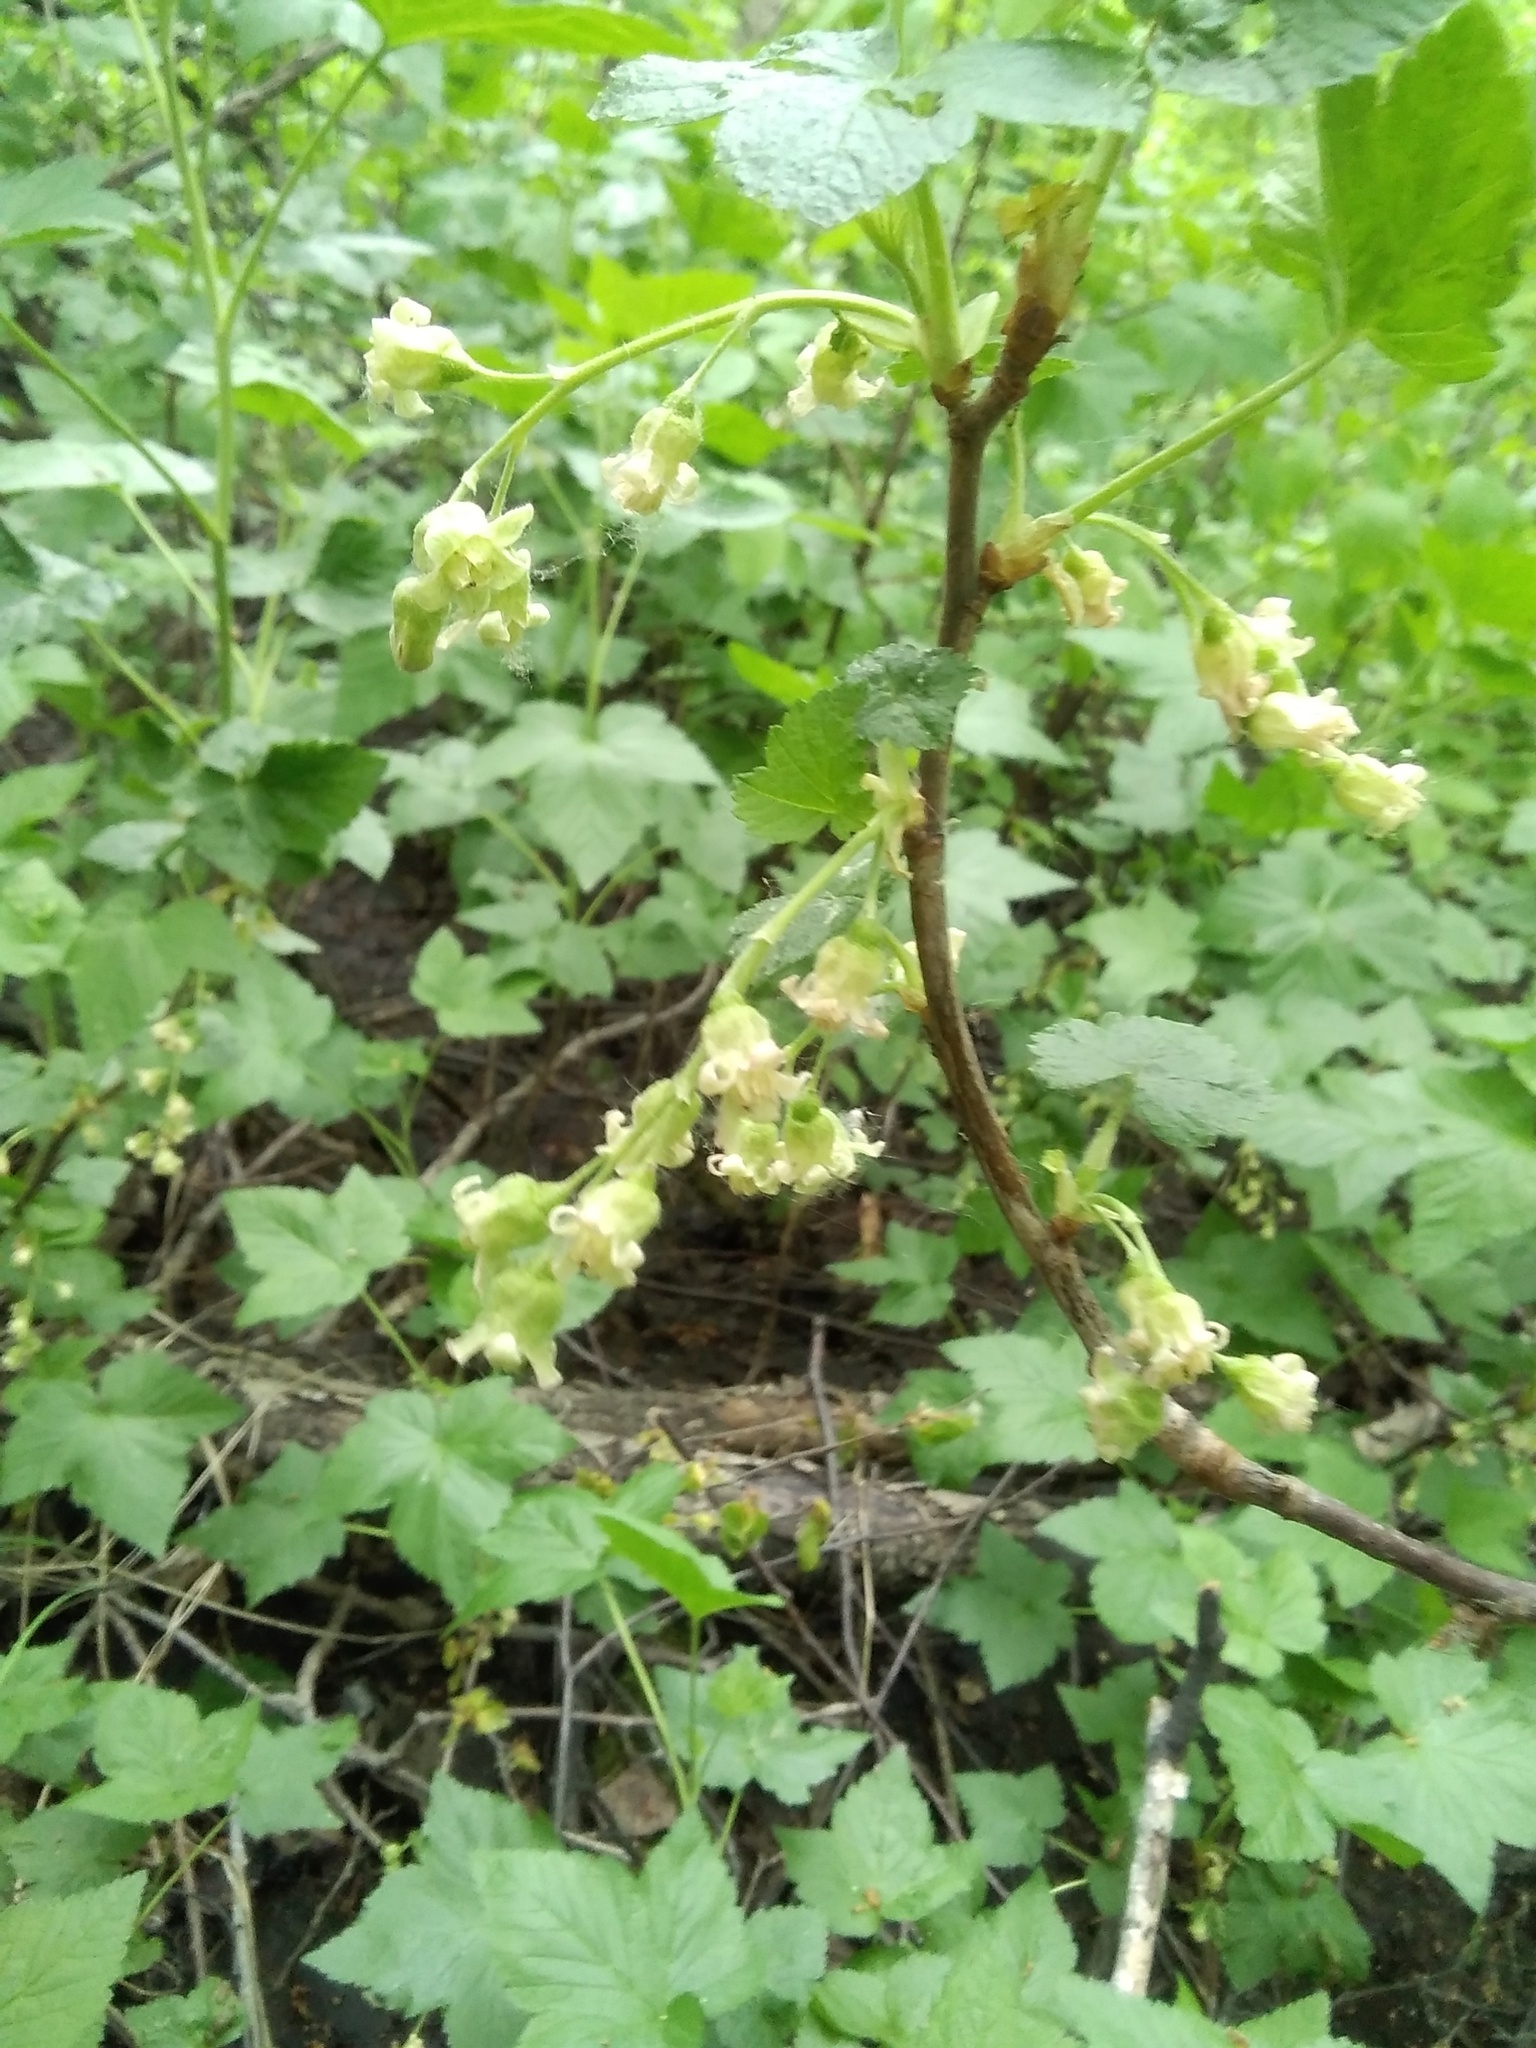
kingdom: Plantae
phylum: Tracheophyta
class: Magnoliopsida
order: Saxifragales
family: Grossulariaceae
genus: Ribes
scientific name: Ribes nigrum
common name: Black currant
